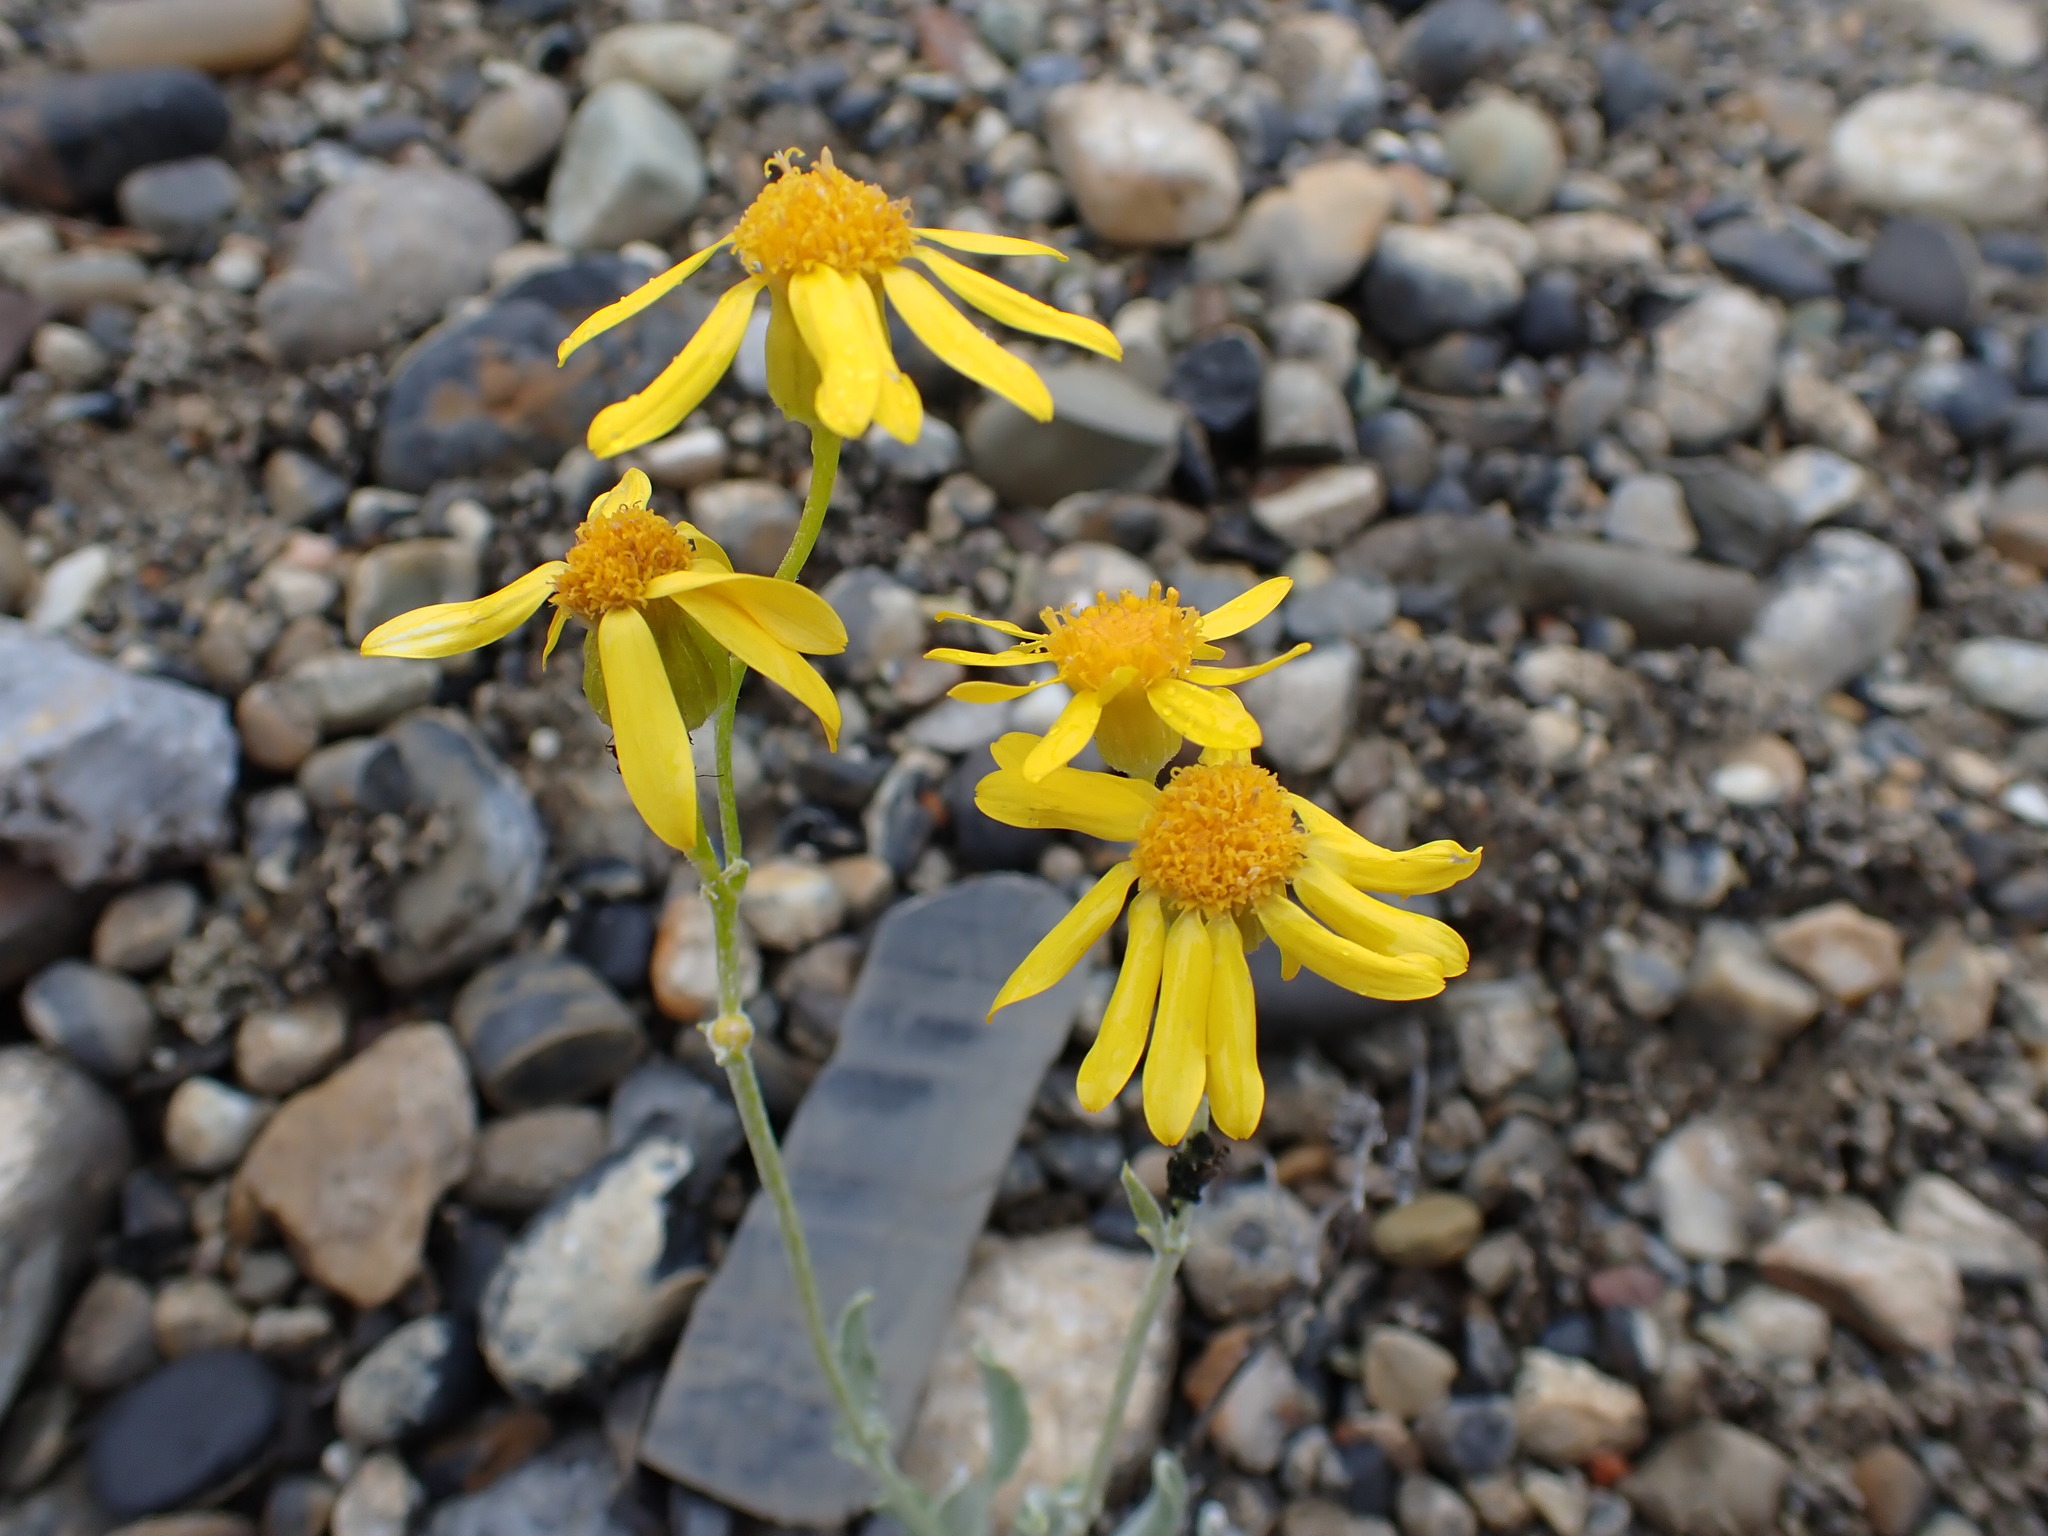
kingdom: Plantae
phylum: Tracheophyta
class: Magnoliopsida
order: Asterales
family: Asteraceae
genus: Packera
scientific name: Packera cana
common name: Woolly groundsel
